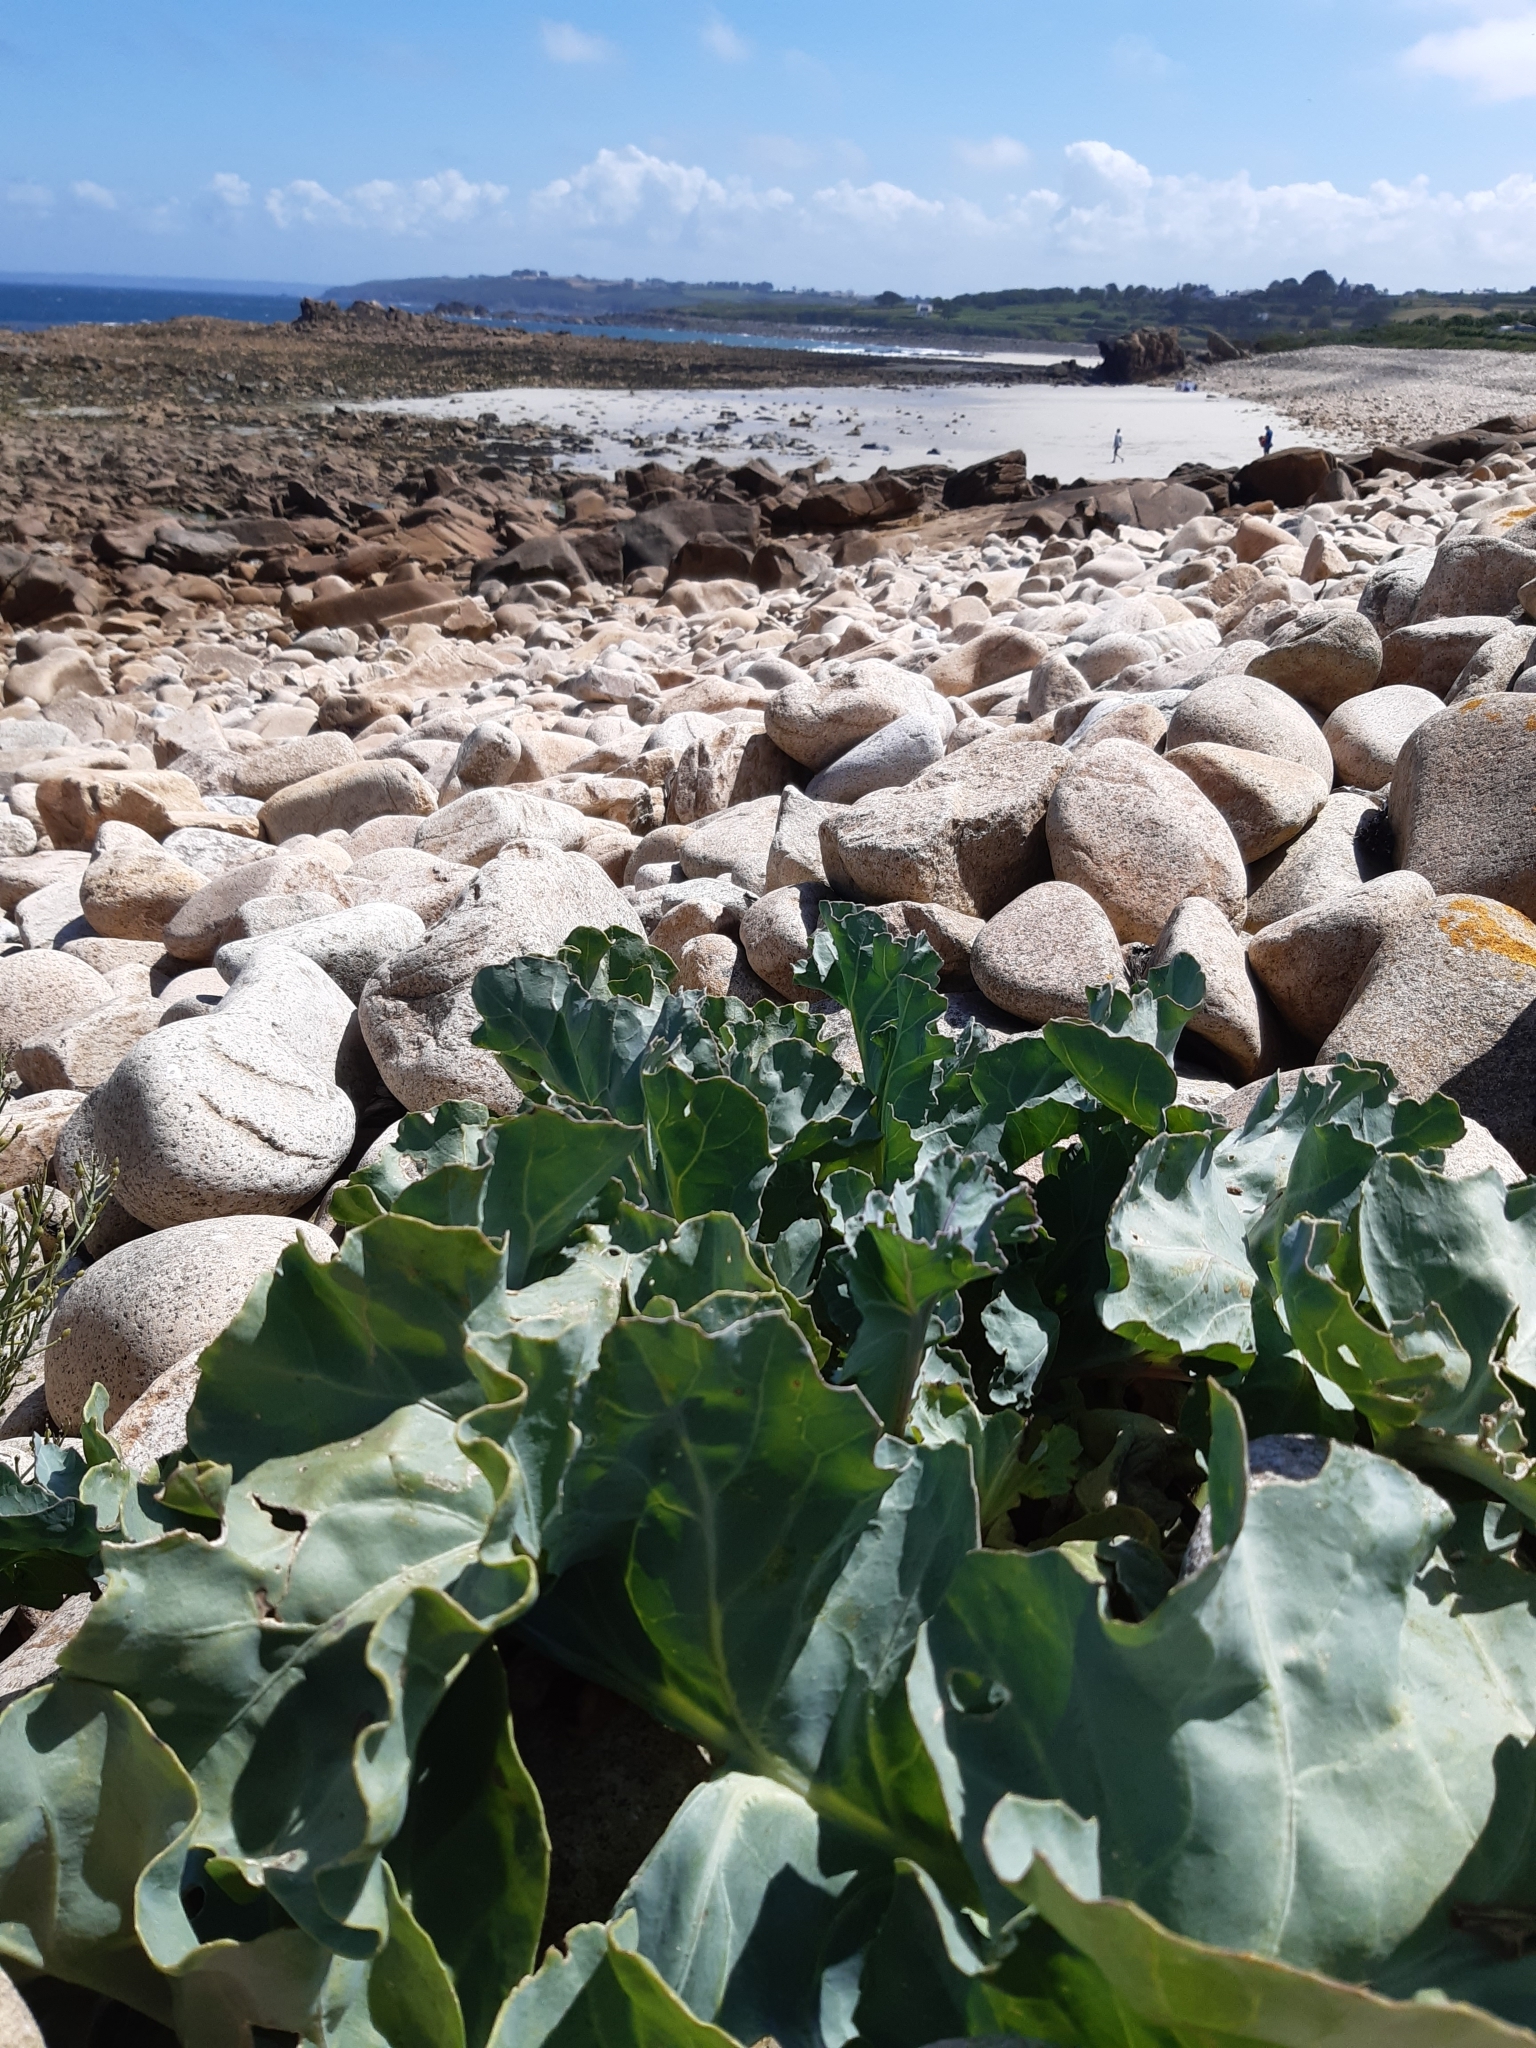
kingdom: Plantae
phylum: Tracheophyta
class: Magnoliopsida
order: Brassicales
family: Brassicaceae
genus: Crambe
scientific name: Crambe maritima
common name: Sea-kale
